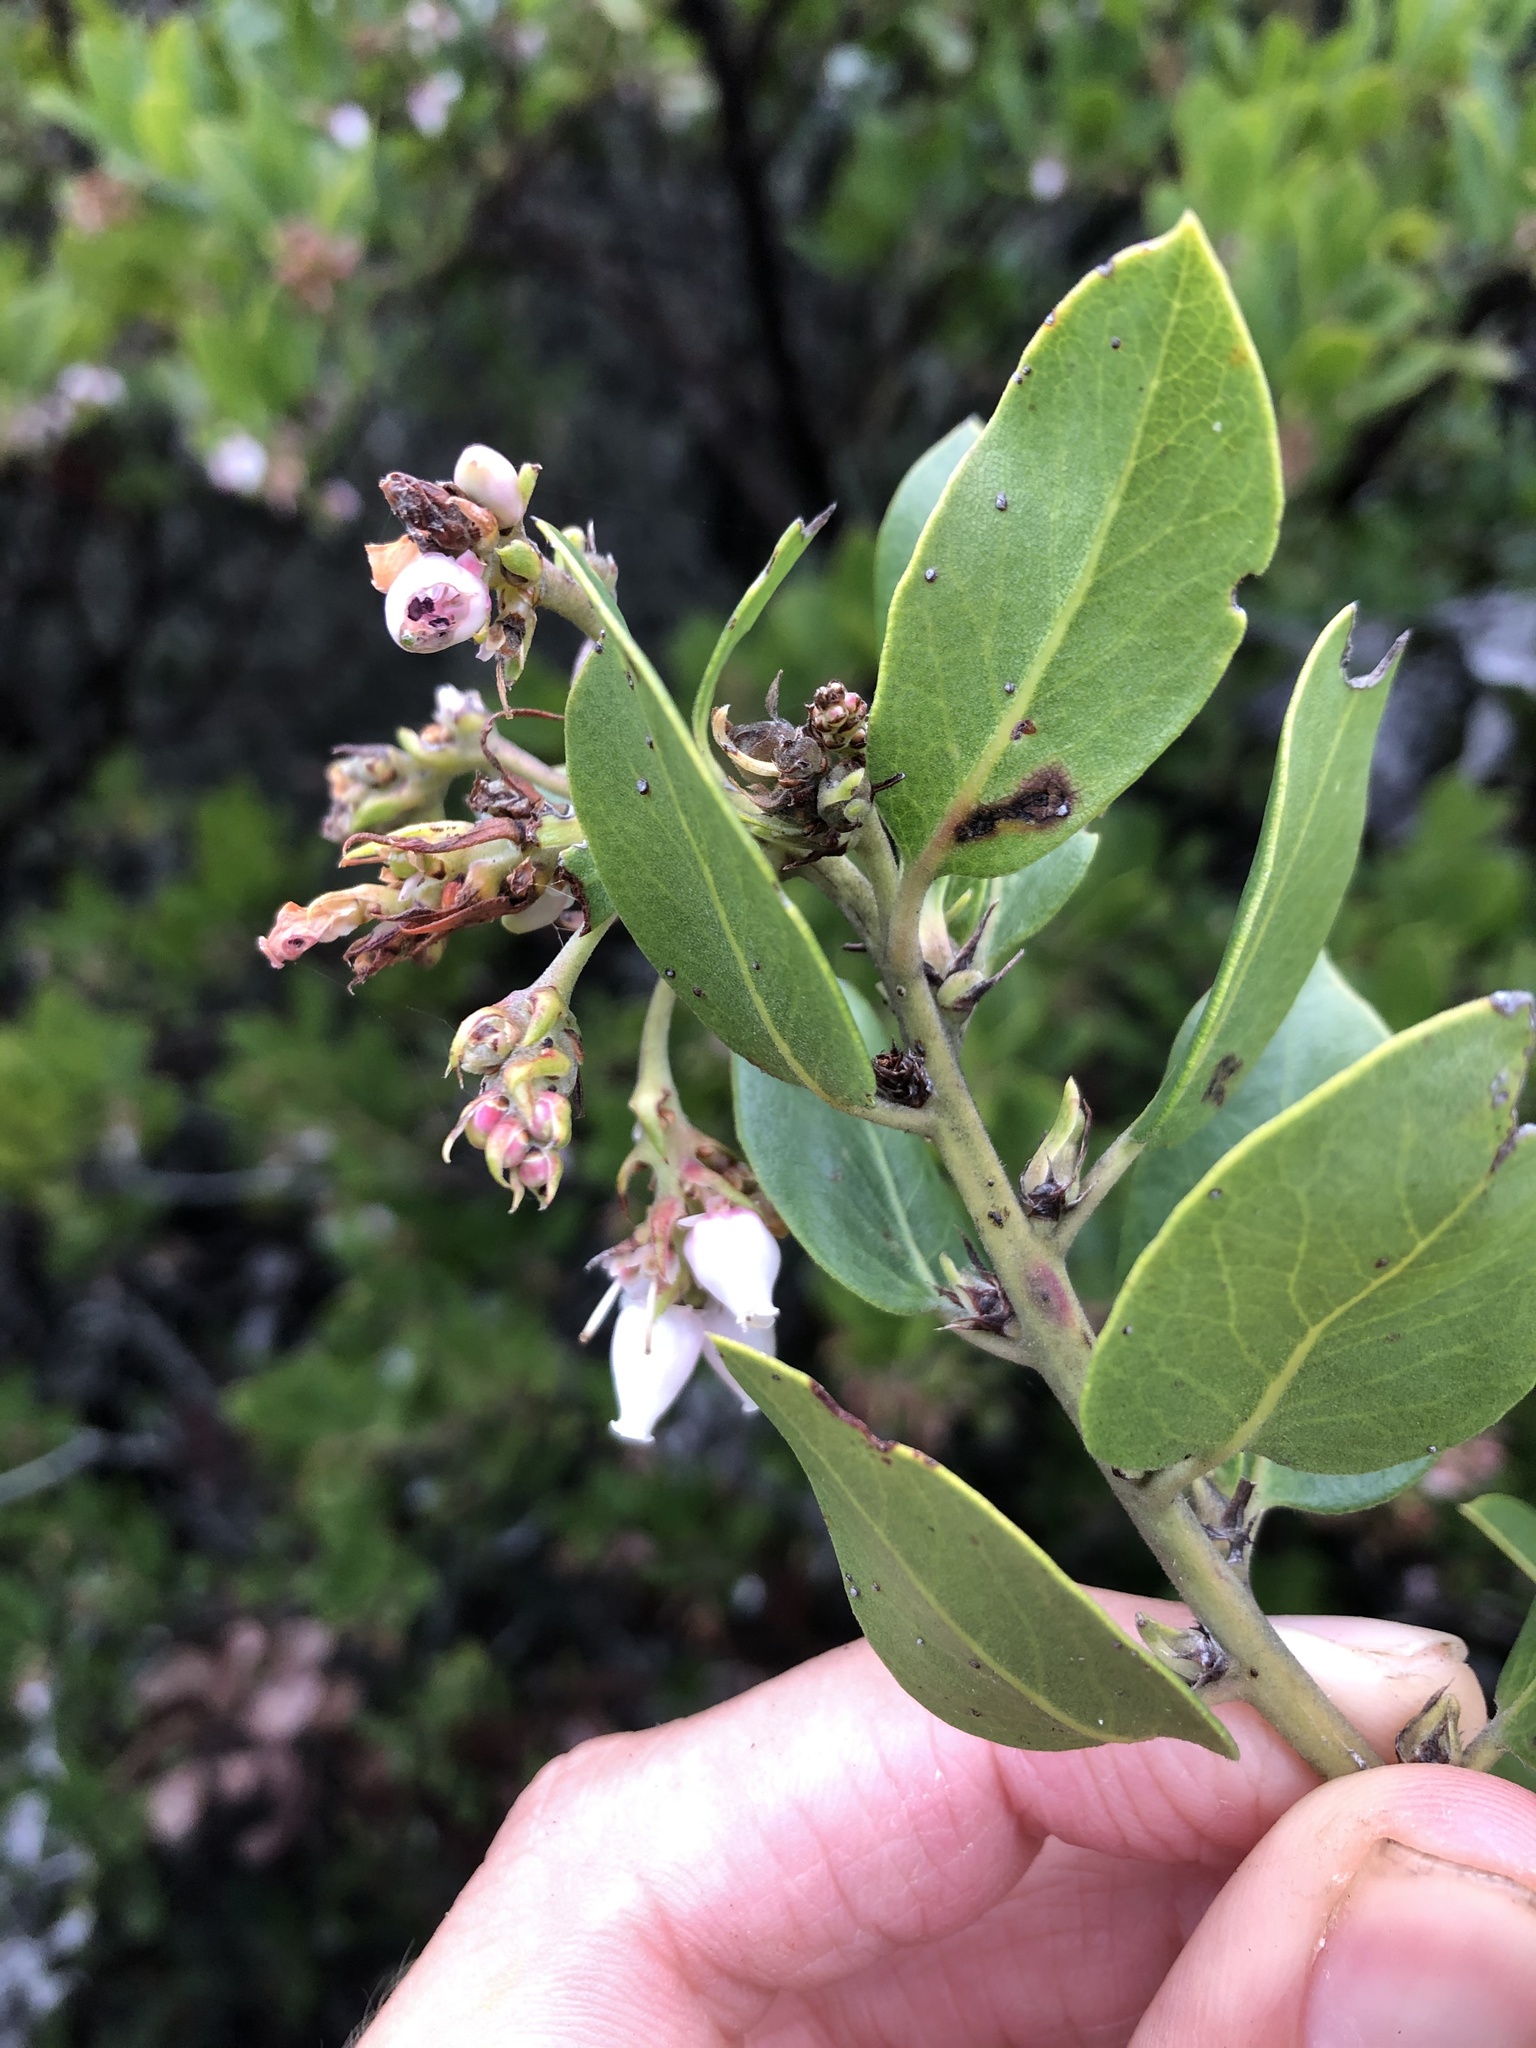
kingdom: Plantae
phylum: Tracheophyta
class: Magnoliopsida
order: Ericales
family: Ericaceae
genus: Arctostaphylos
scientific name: Arctostaphylos crustacea
